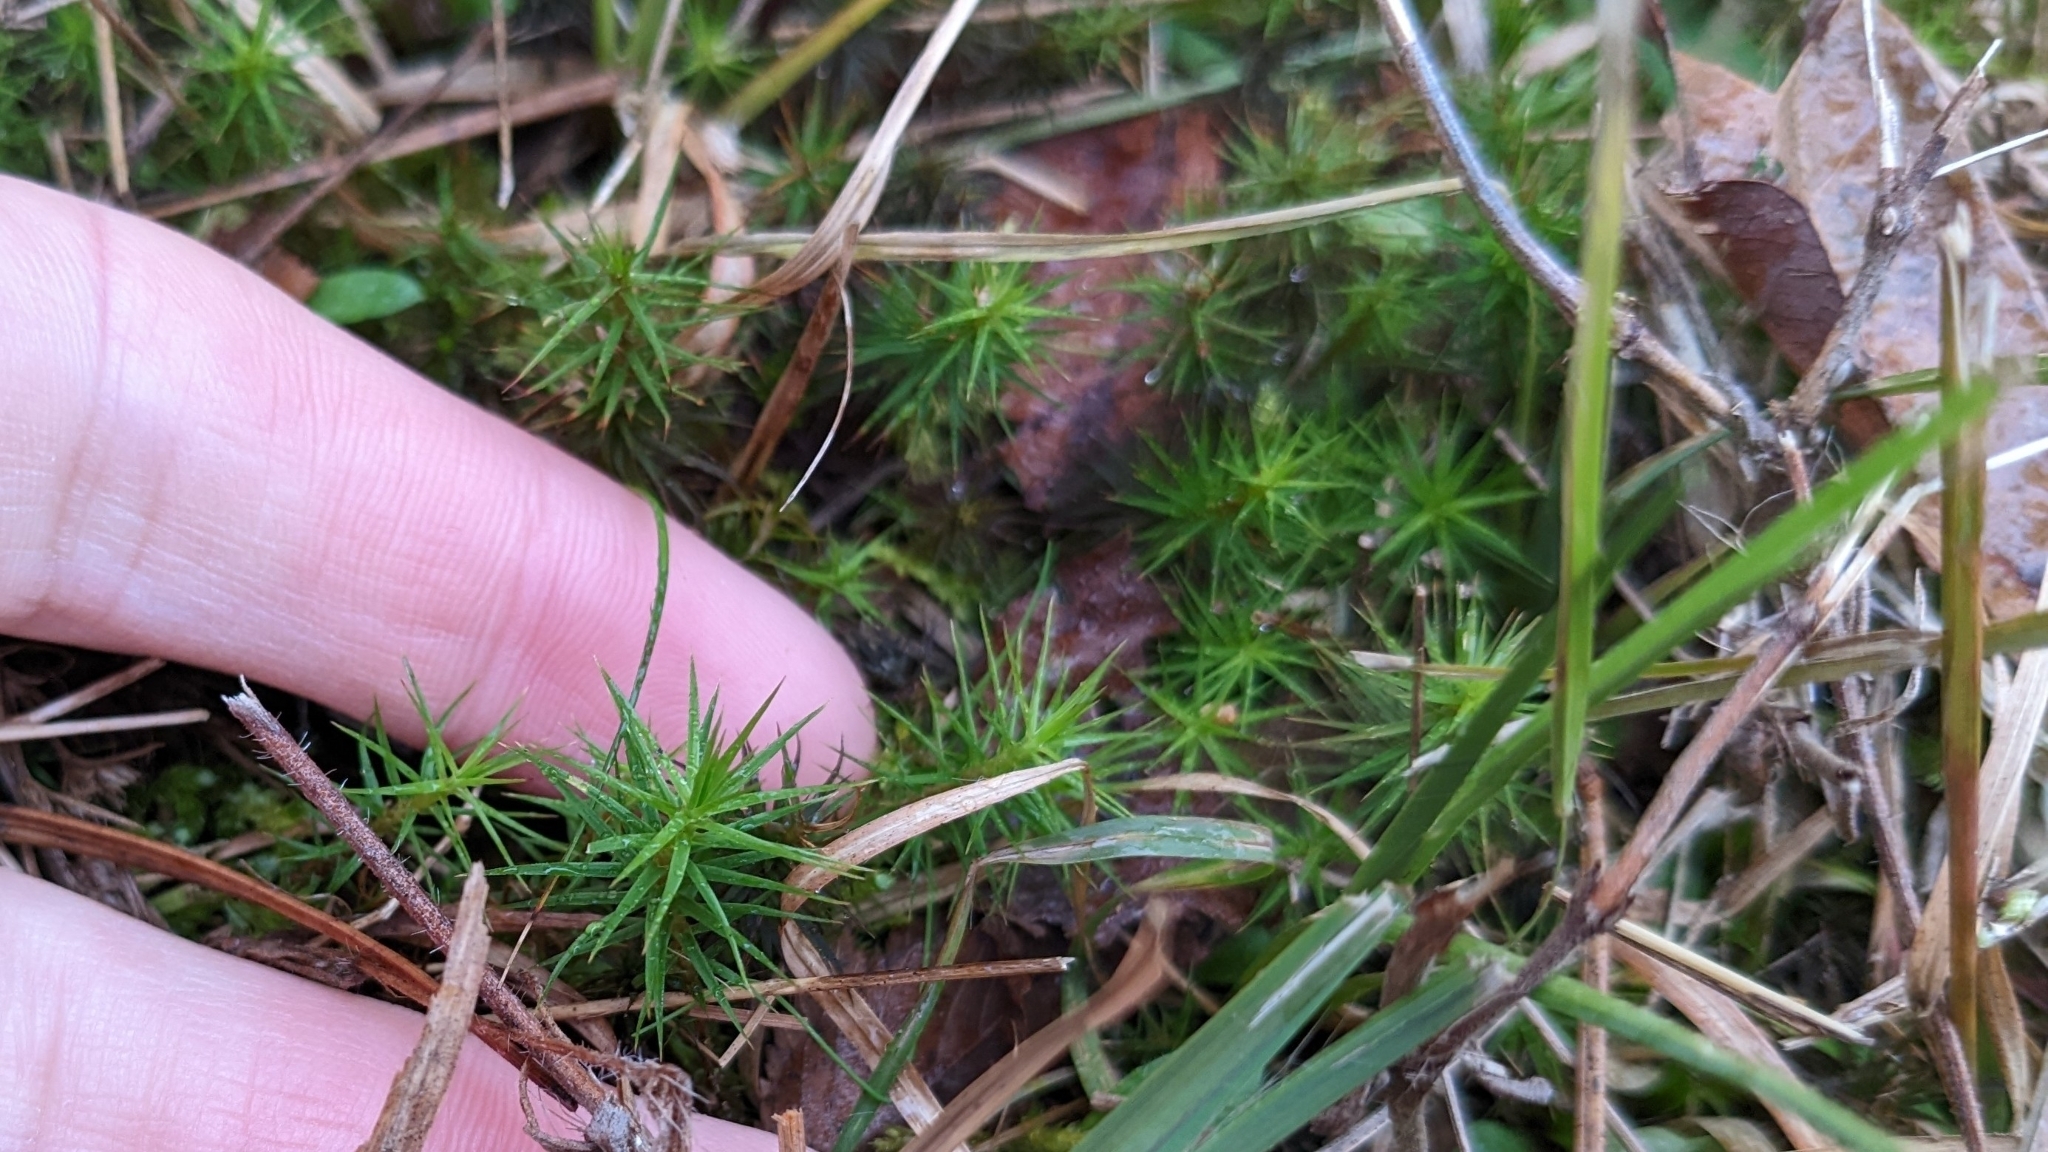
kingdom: Plantae
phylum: Bryophyta
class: Polytrichopsida
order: Polytrichales
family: Polytrichaceae
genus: Polytrichum
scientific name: Polytrichum commune
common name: Common haircap
